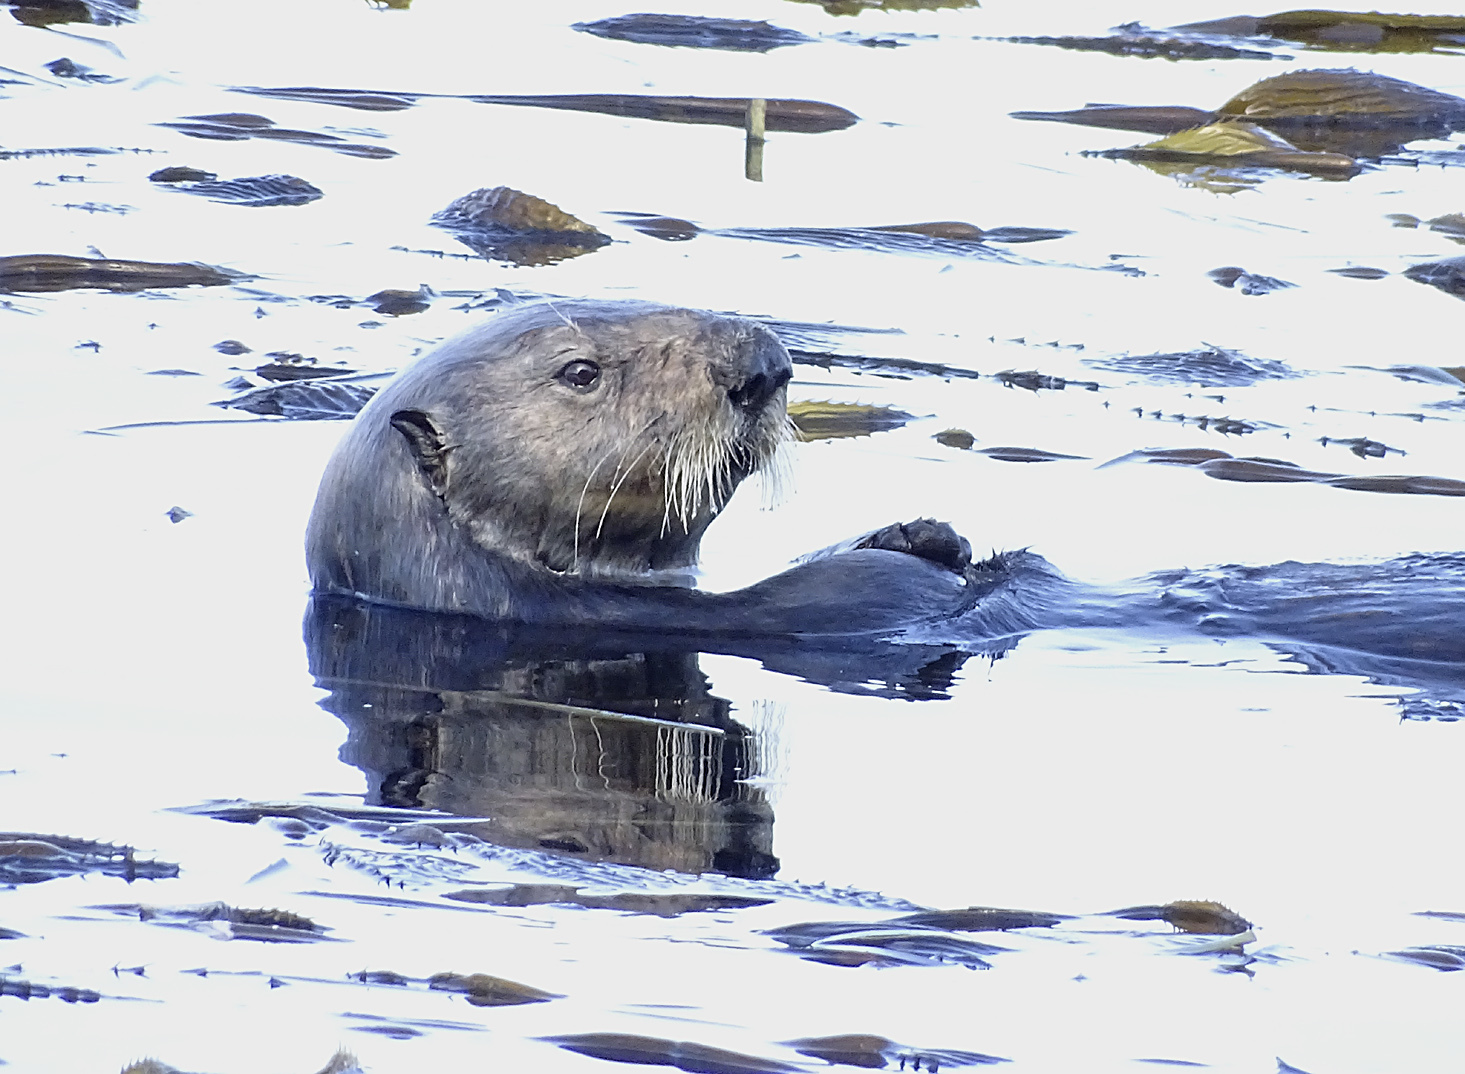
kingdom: Animalia
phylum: Chordata
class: Mammalia
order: Carnivora
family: Mustelidae
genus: Enhydra
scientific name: Enhydra lutris
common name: Sea otter
